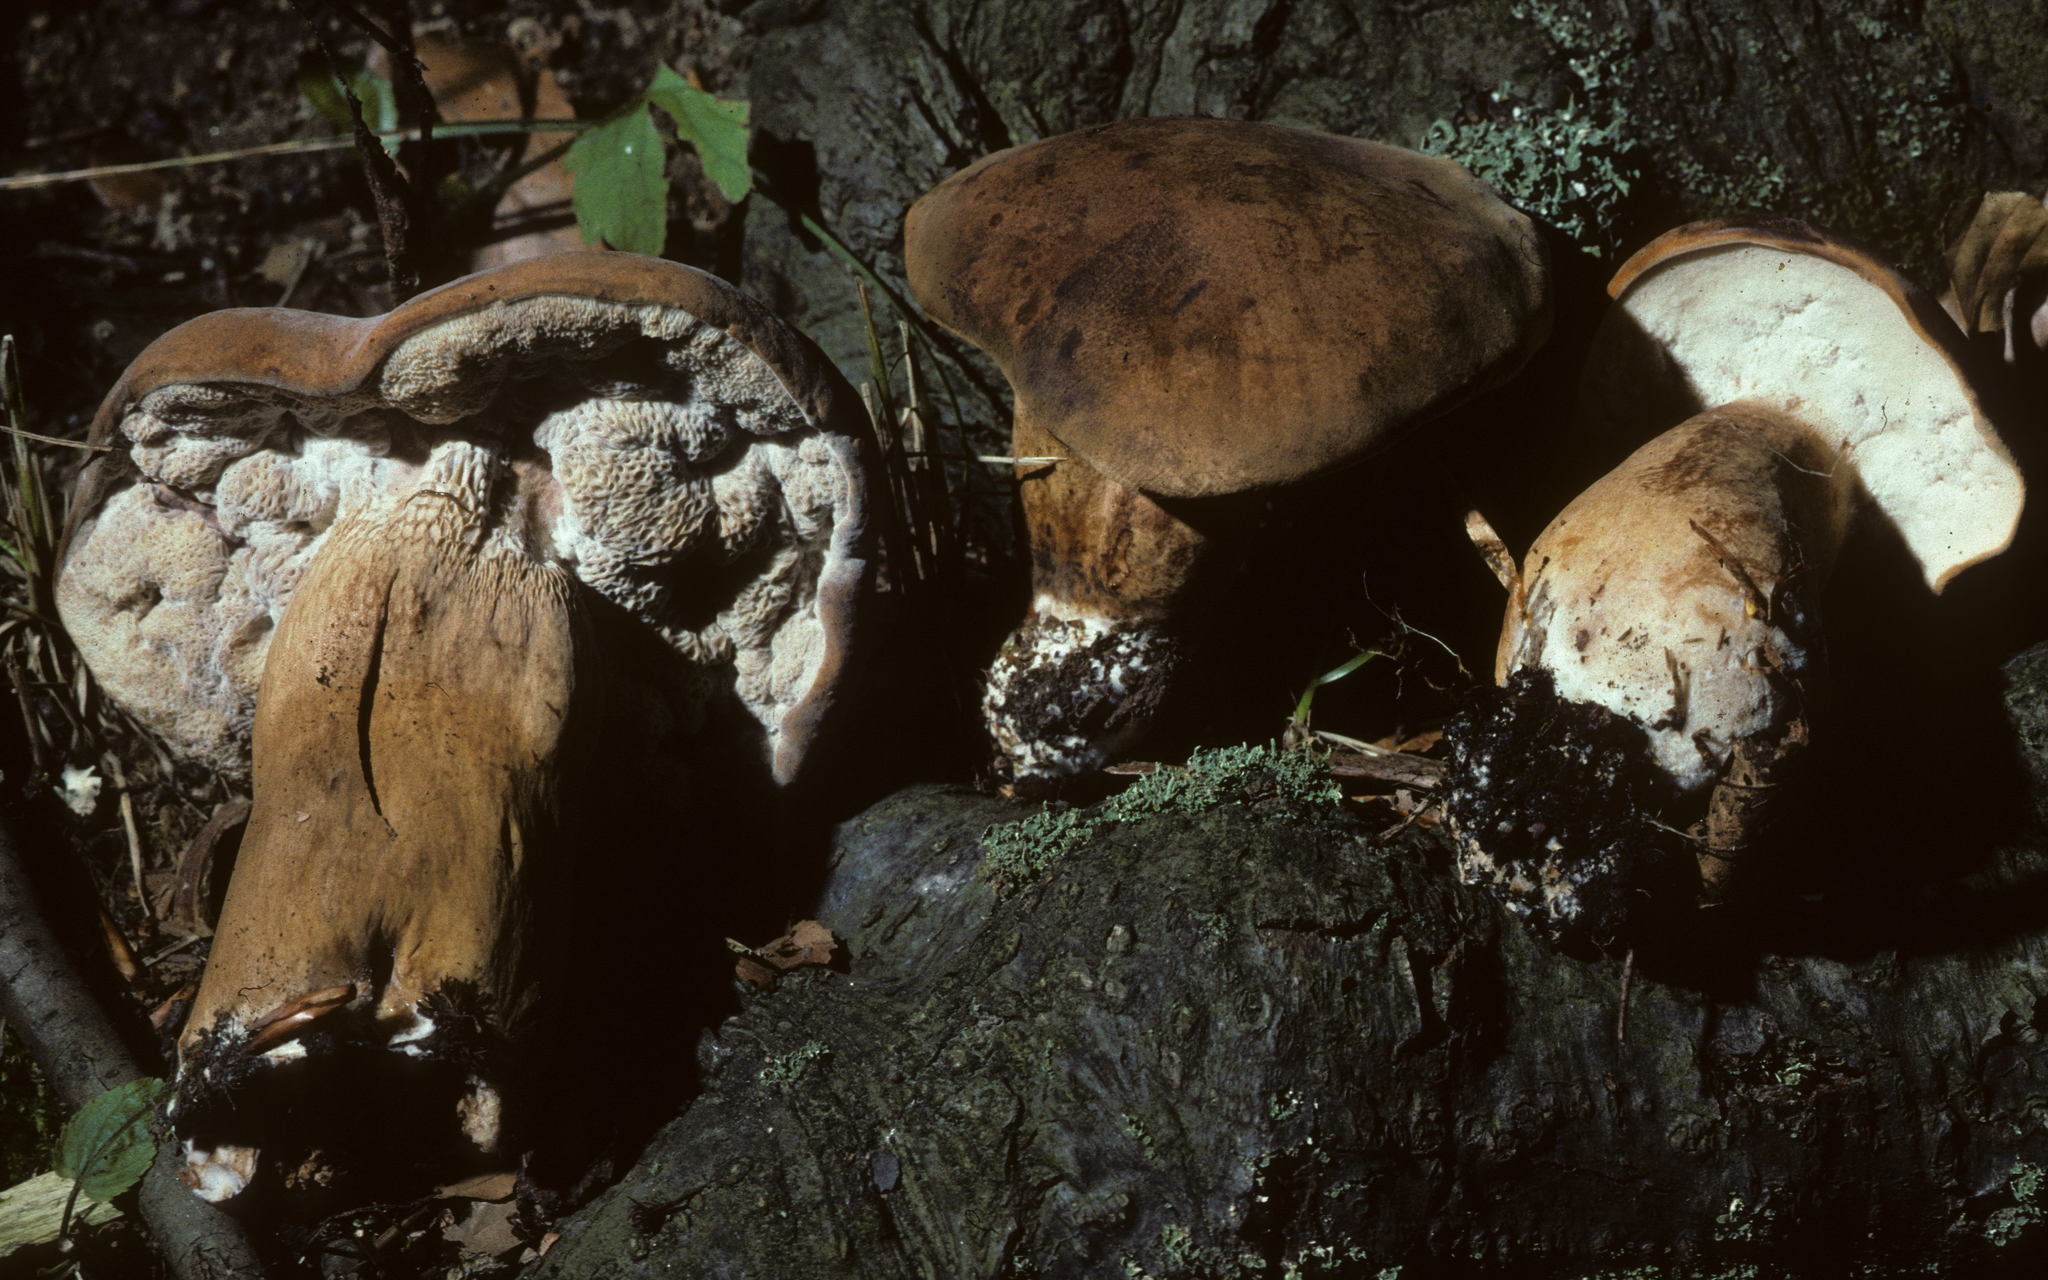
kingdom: Fungi
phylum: Ascomycota
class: Sordariomycetes
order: Hypocreales
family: Hypocreaceae
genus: Hypomyces
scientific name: Hypomyces melanocarpus
